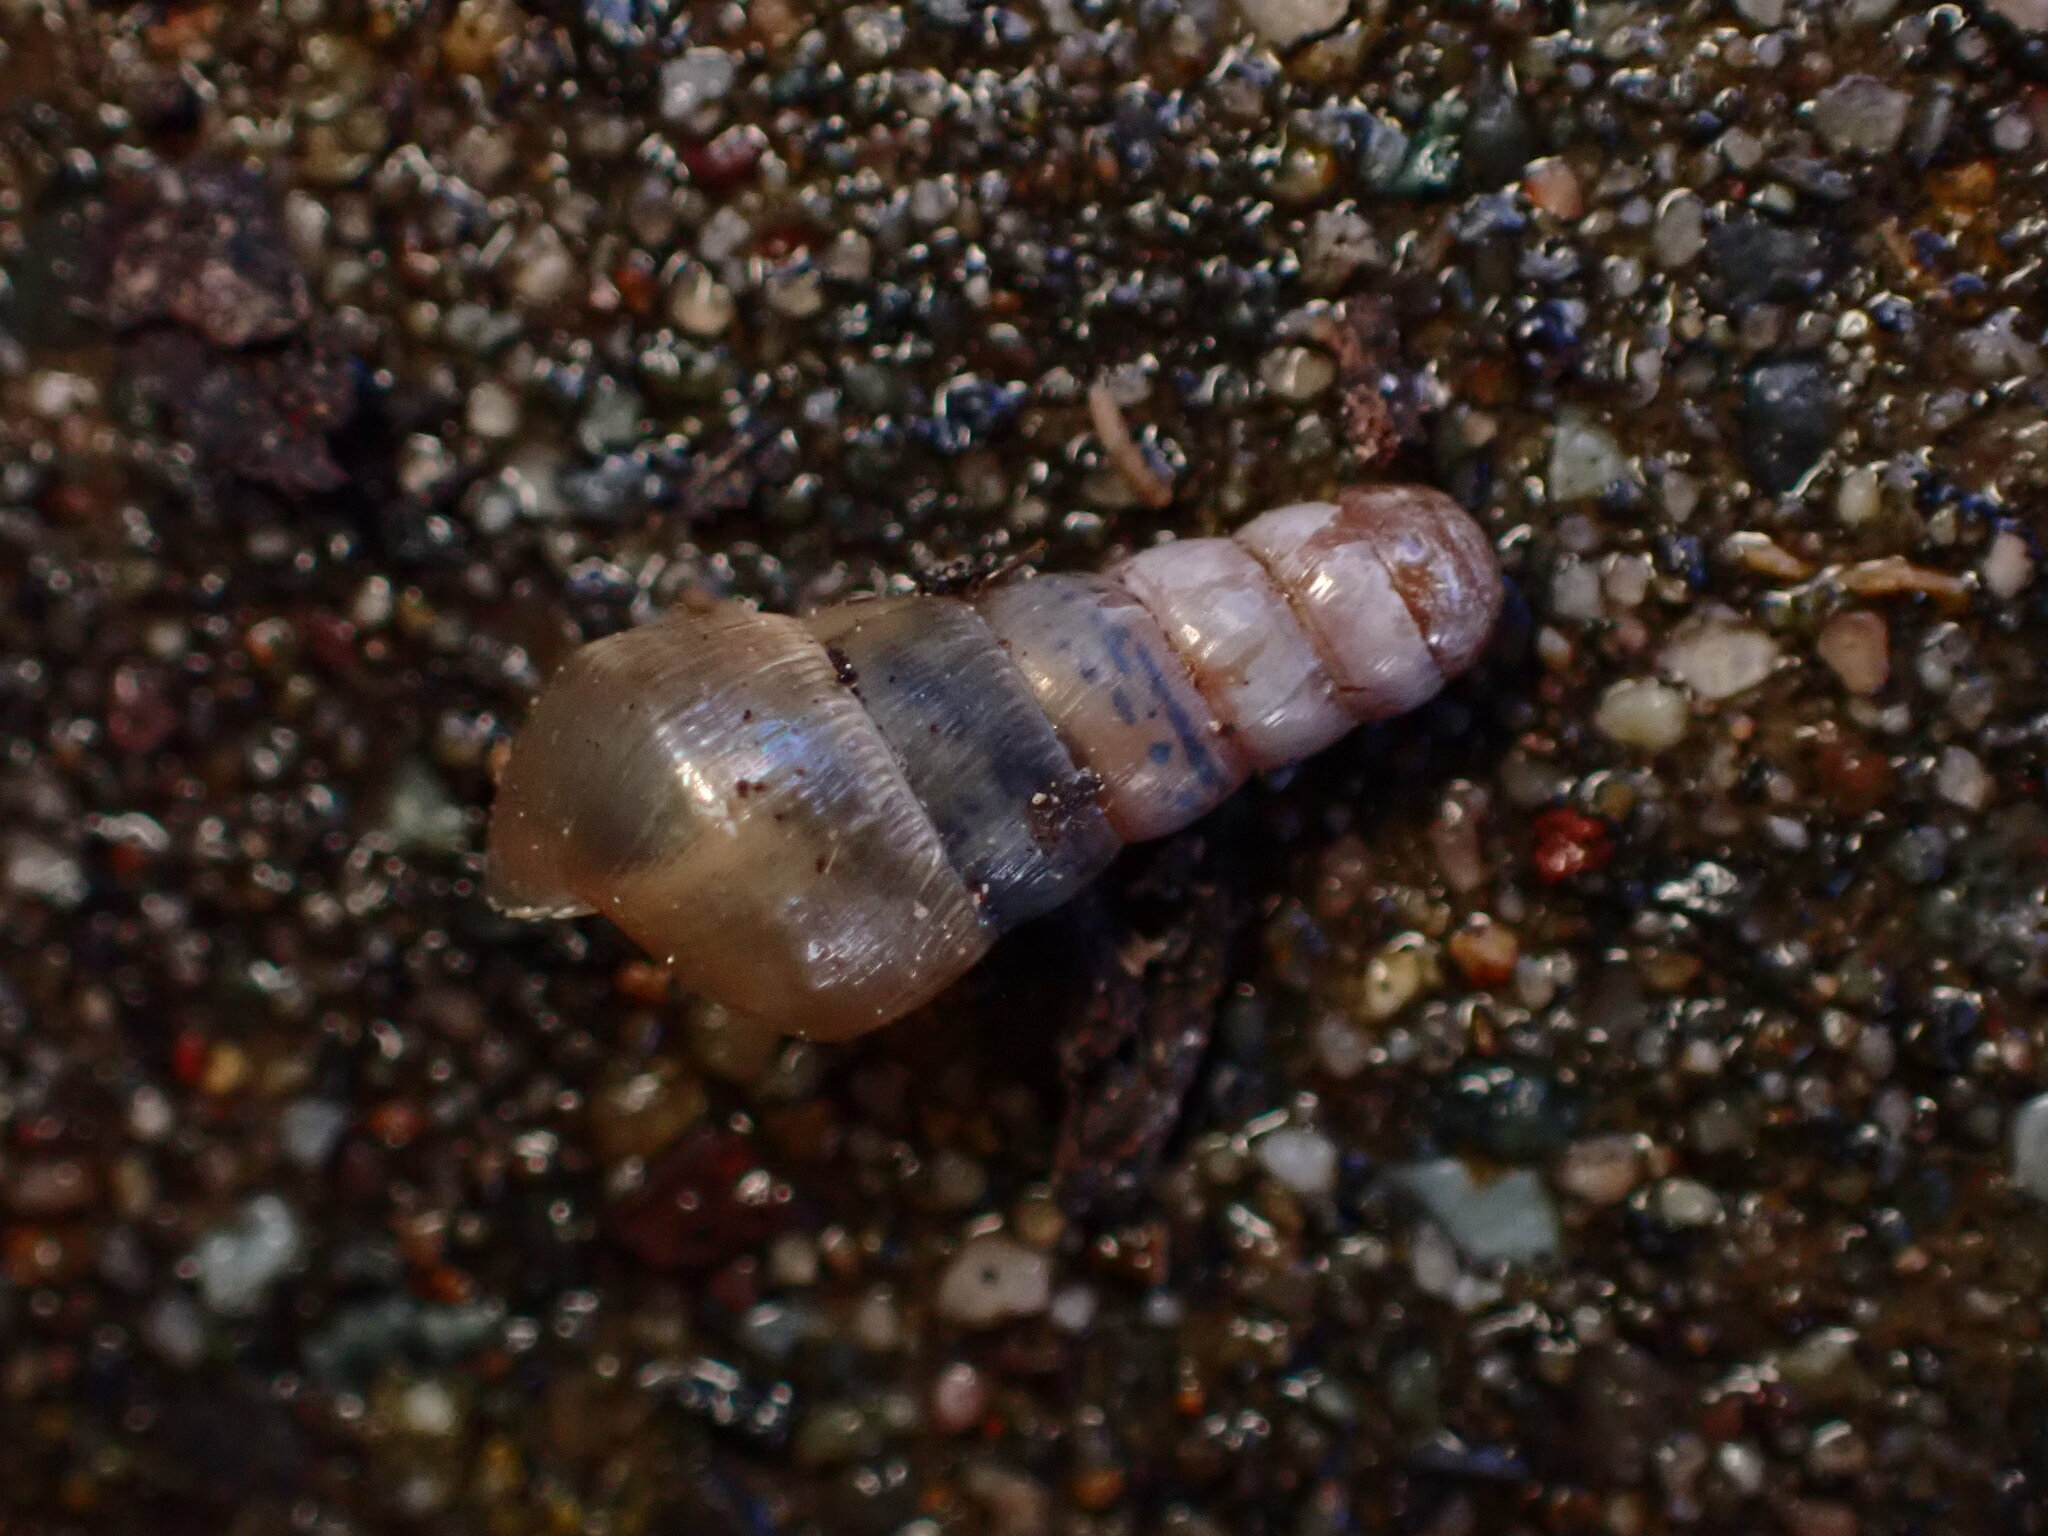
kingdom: Animalia
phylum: Mollusca
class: Gastropoda
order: Stylommatophora
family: Achatinidae
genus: Rumina
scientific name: Rumina decollata
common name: Decollate snail
